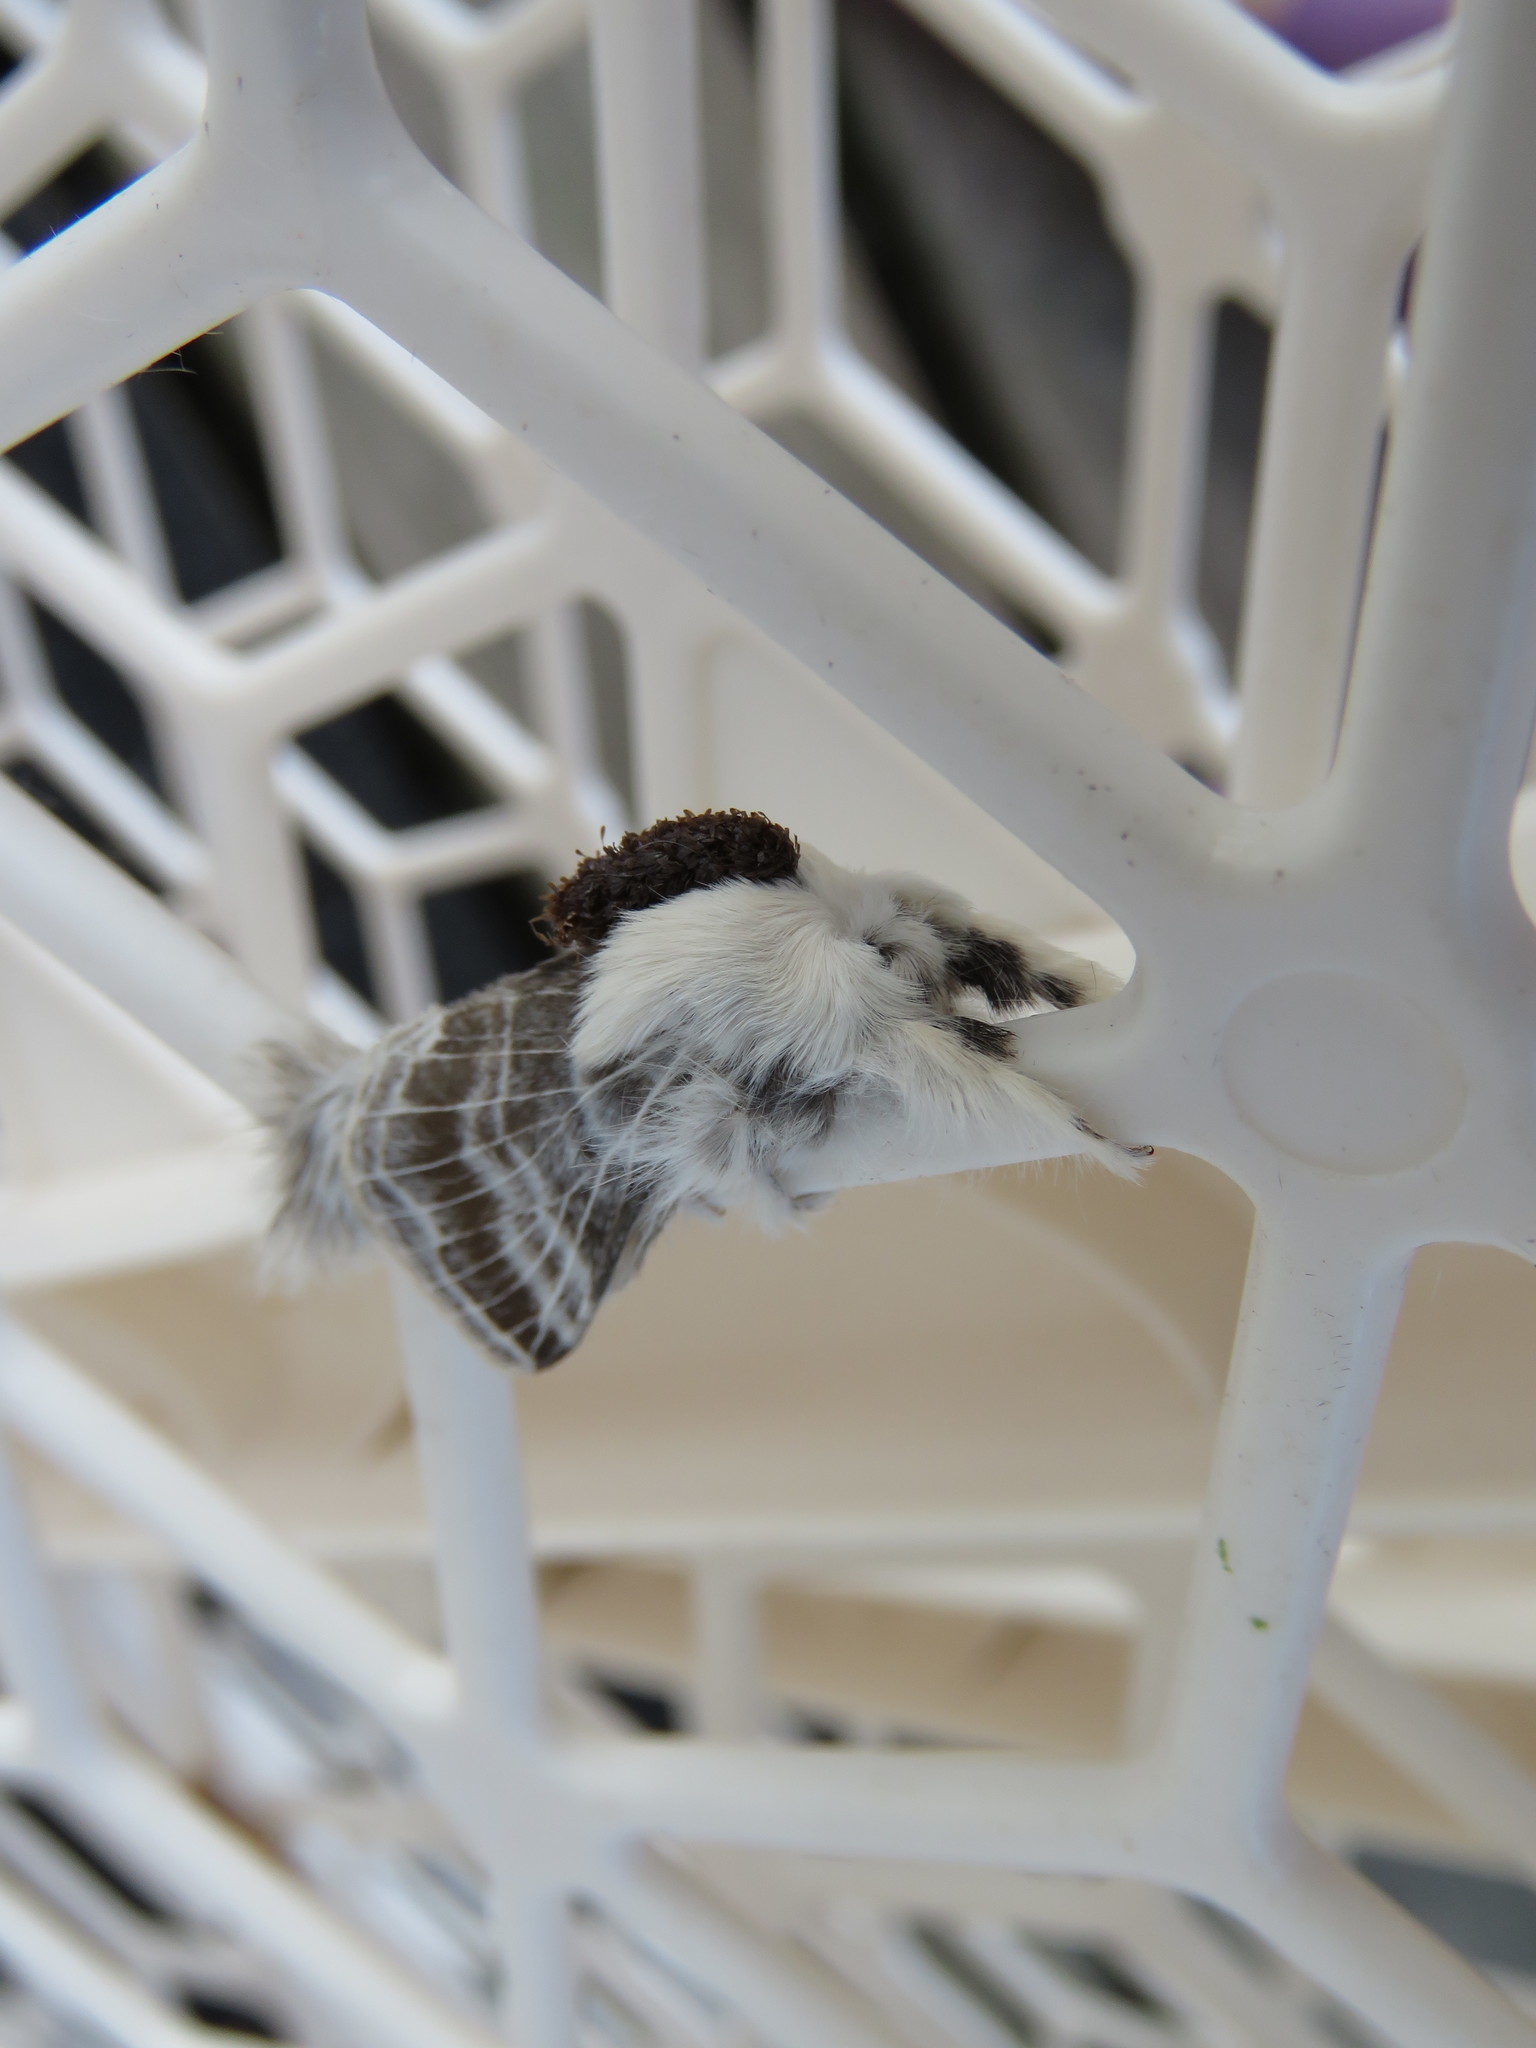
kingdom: Animalia
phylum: Arthropoda
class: Insecta
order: Lepidoptera
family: Lasiocampidae
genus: Tolype
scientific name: Tolype velleda
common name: Large tolype moth
